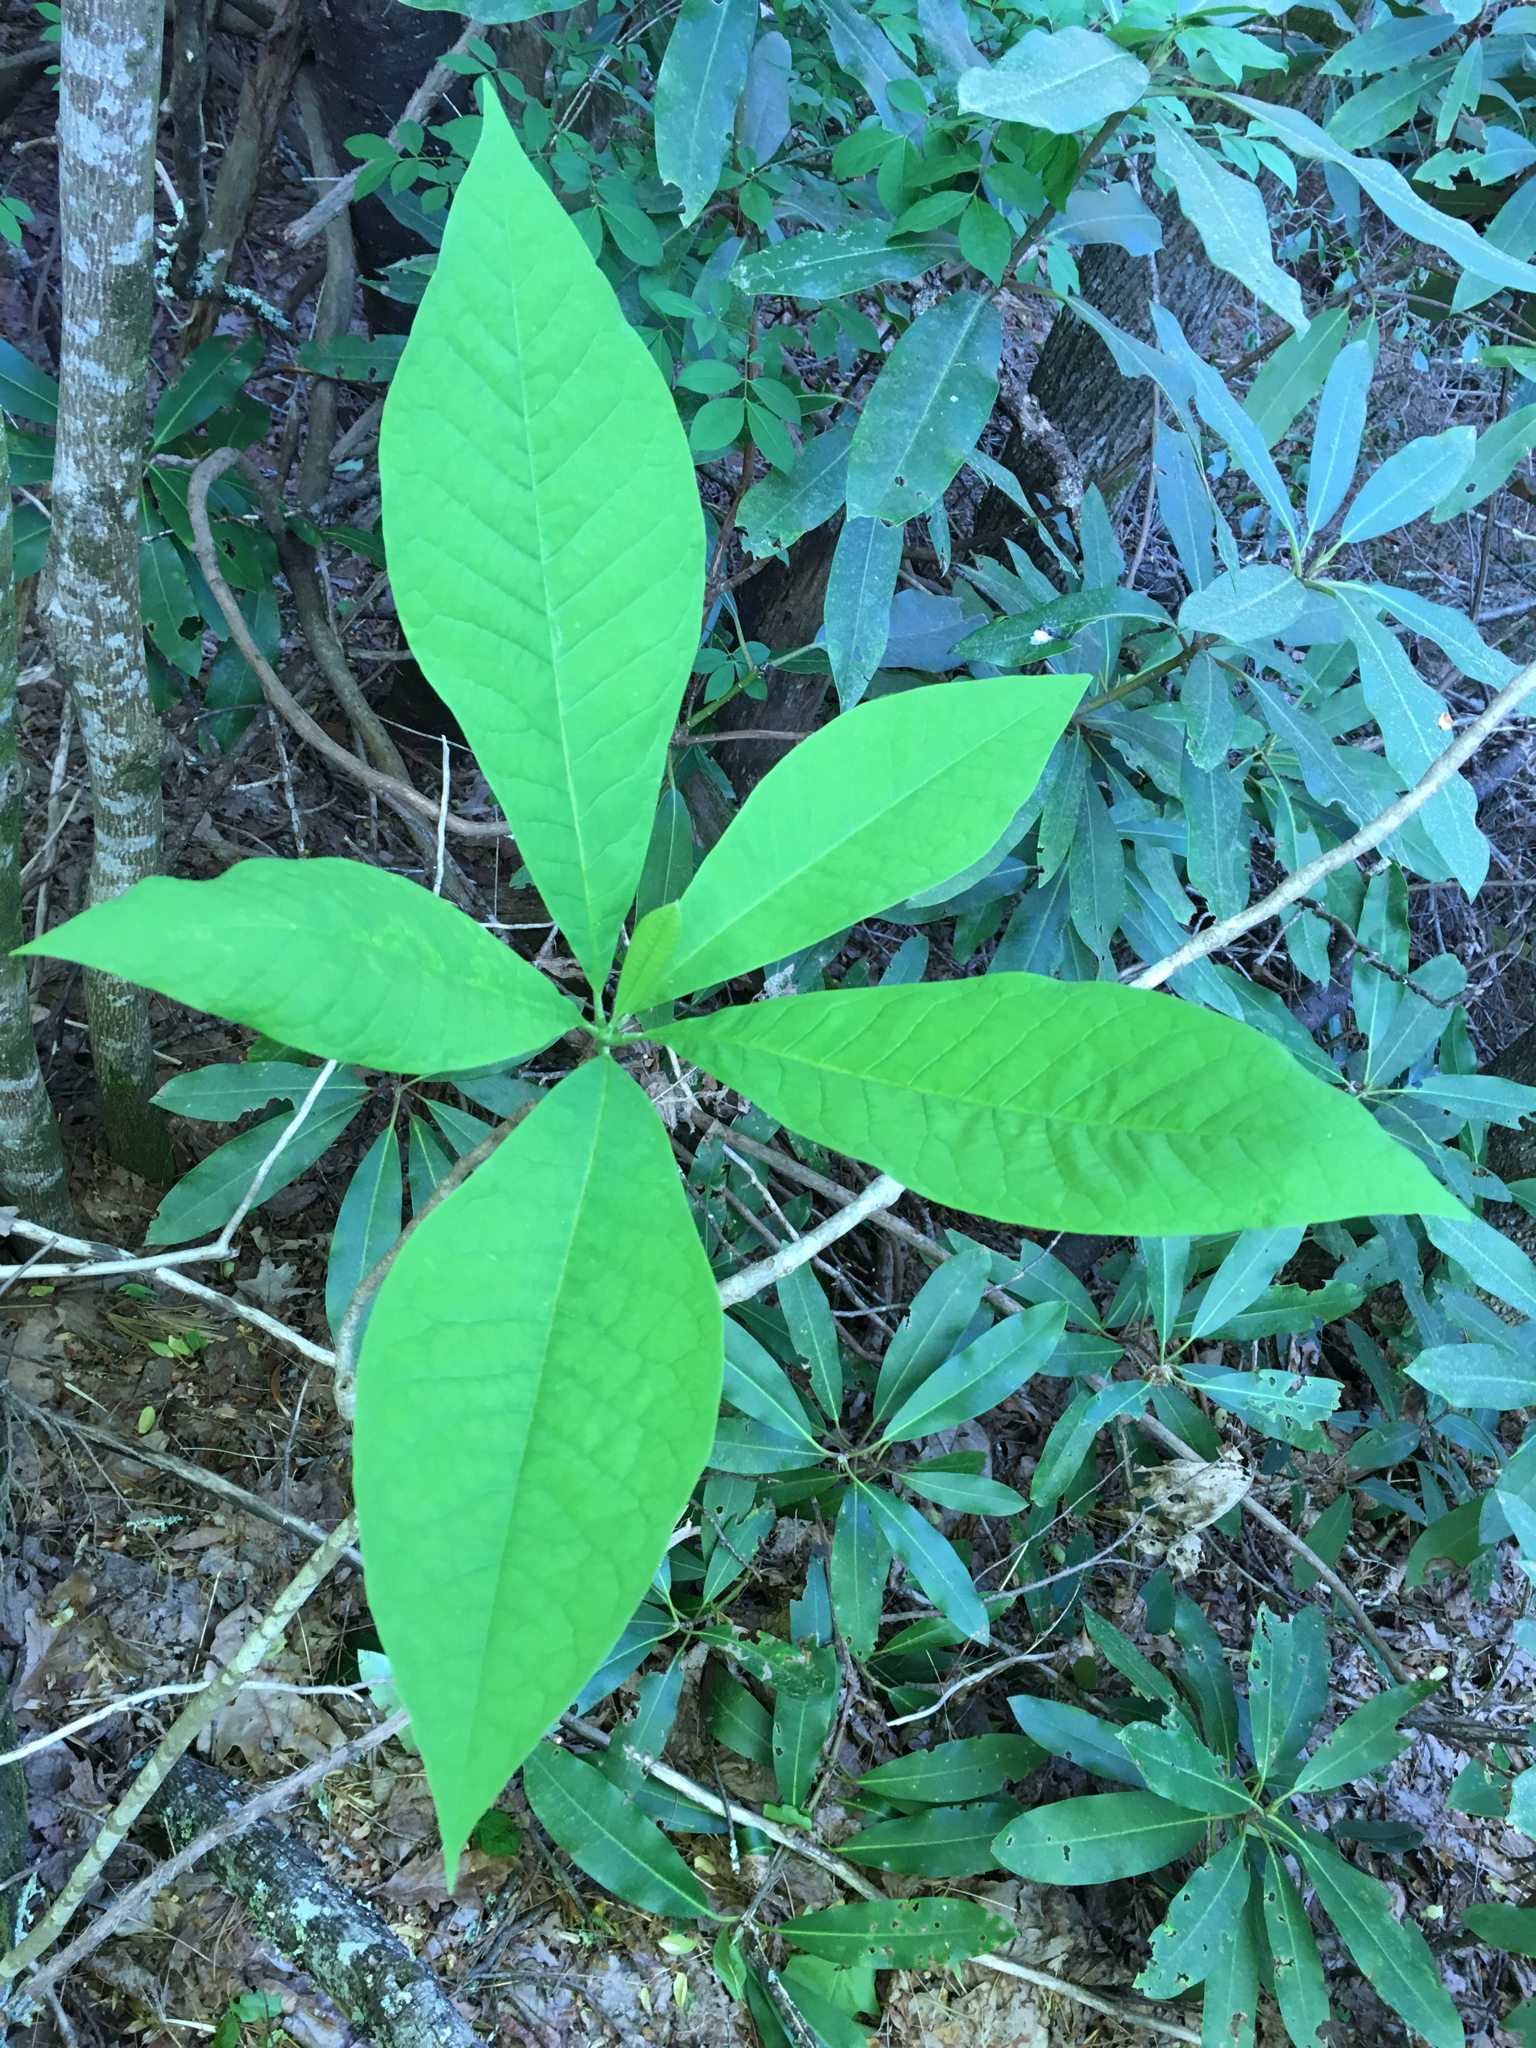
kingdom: Plantae
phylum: Tracheophyta
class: Magnoliopsida
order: Magnoliales
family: Magnoliaceae
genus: Magnolia
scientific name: Magnolia tripetala
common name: Umbrella magnolia
